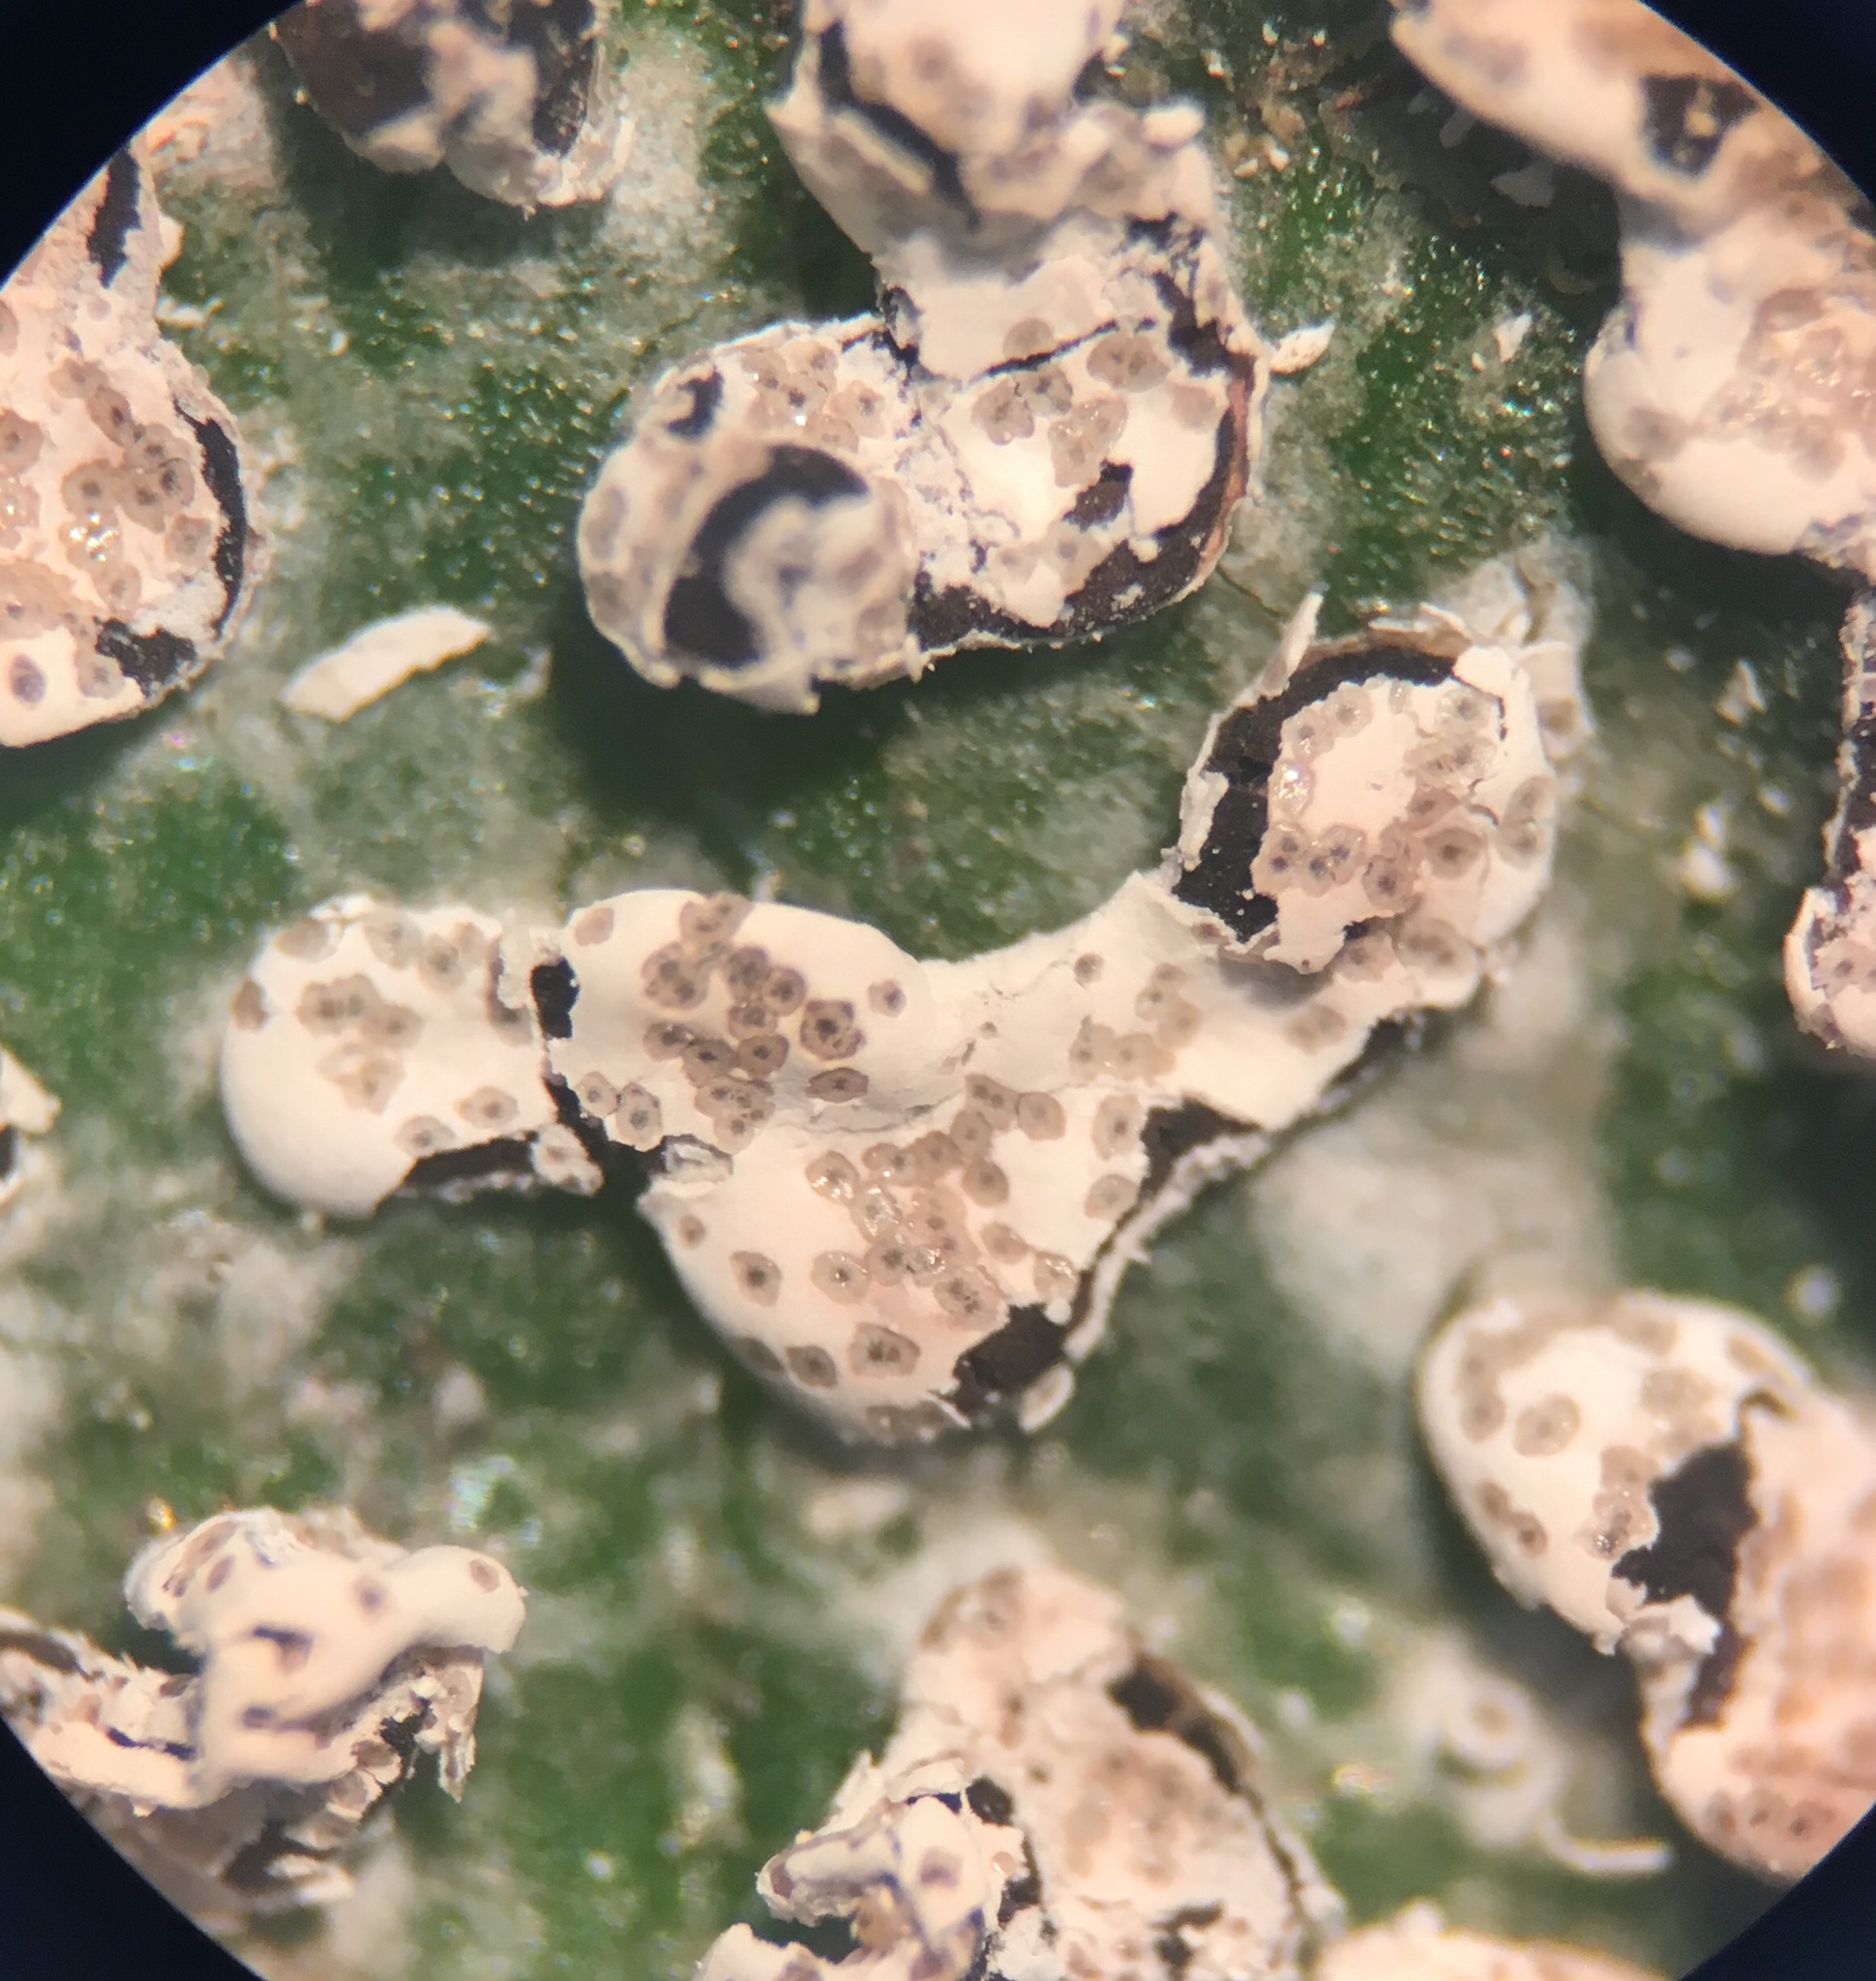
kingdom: Protozoa
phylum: Mycetozoa
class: Myxomycetes
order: Physarales
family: Didymiaceae
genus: Diderma
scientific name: Diderma effusum
